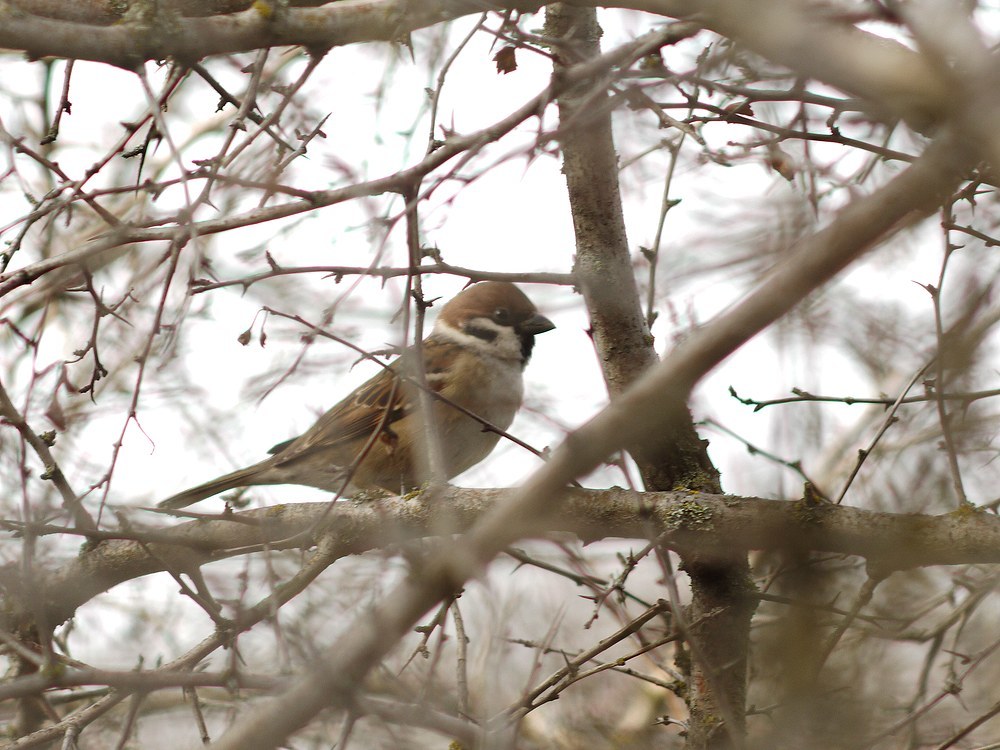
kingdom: Animalia
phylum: Chordata
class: Aves
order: Passeriformes
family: Passeridae
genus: Passer
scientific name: Passer montanus
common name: Eurasian tree sparrow
